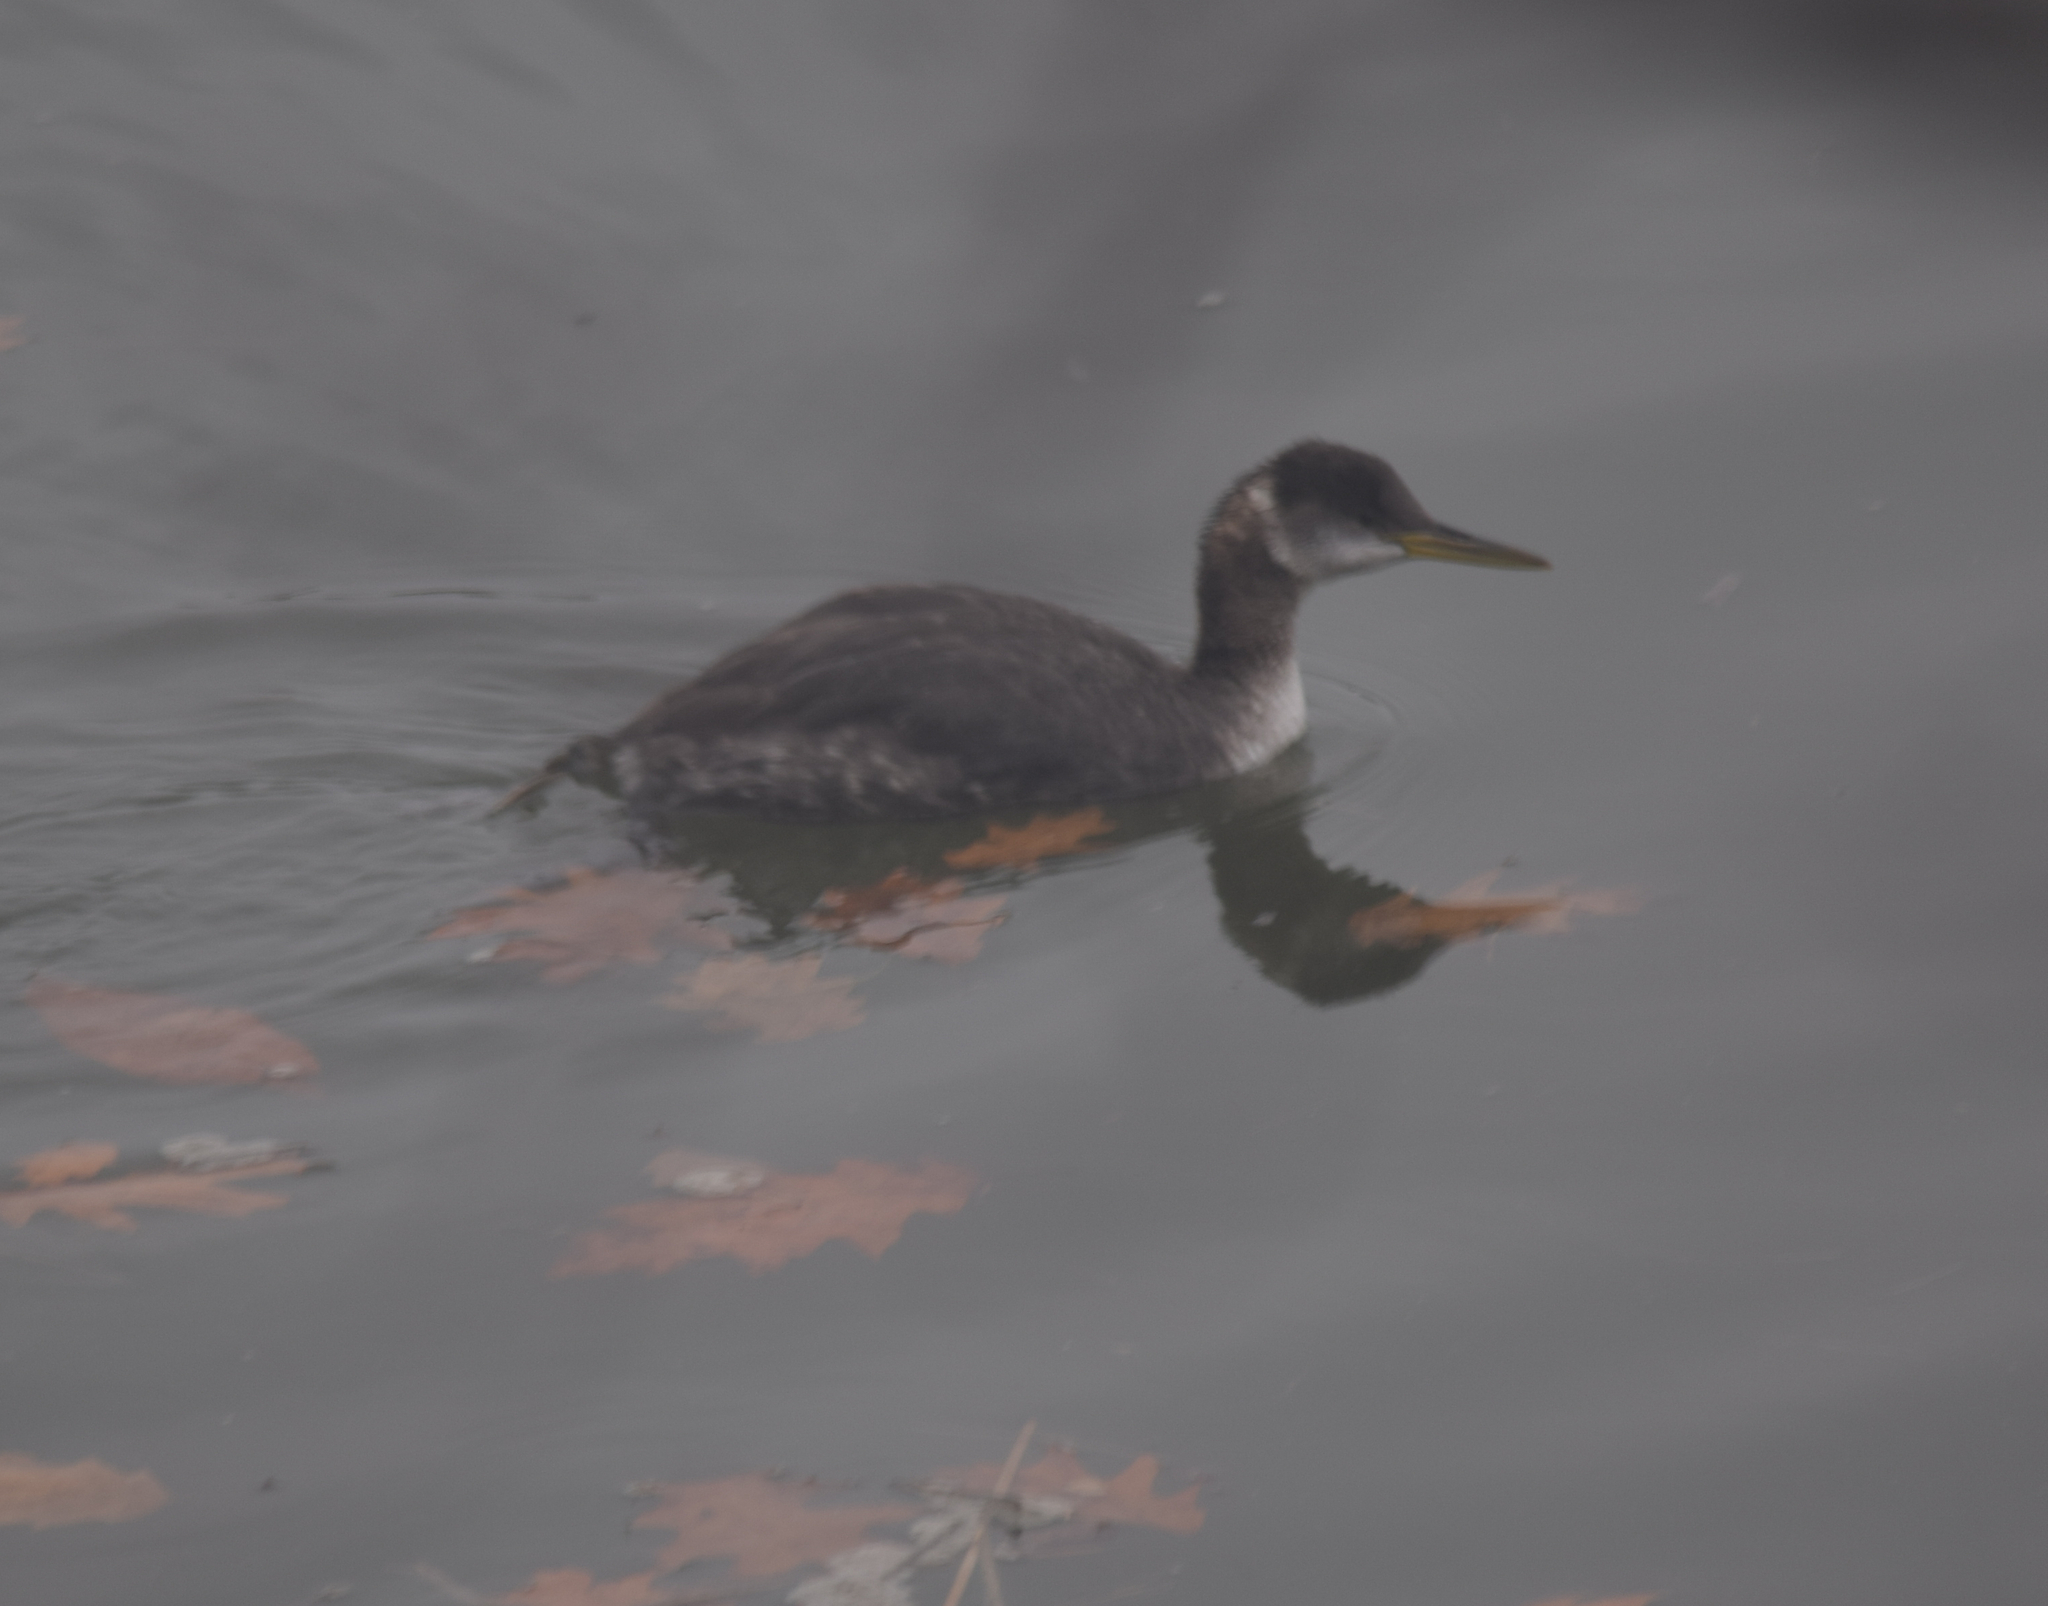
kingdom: Animalia
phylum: Chordata
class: Aves
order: Podicipediformes
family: Podicipedidae
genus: Podiceps
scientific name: Podiceps grisegena
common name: Red-necked grebe
